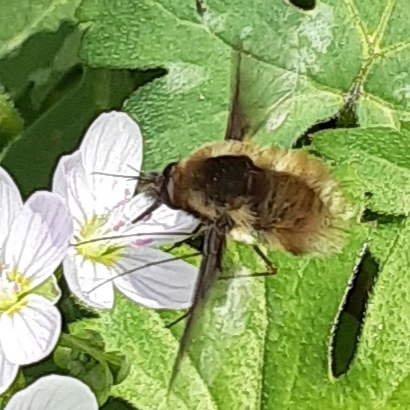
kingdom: Animalia
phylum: Arthropoda
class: Insecta
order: Diptera
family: Bombyliidae
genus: Bombylius
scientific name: Bombylius major
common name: Bee fly
